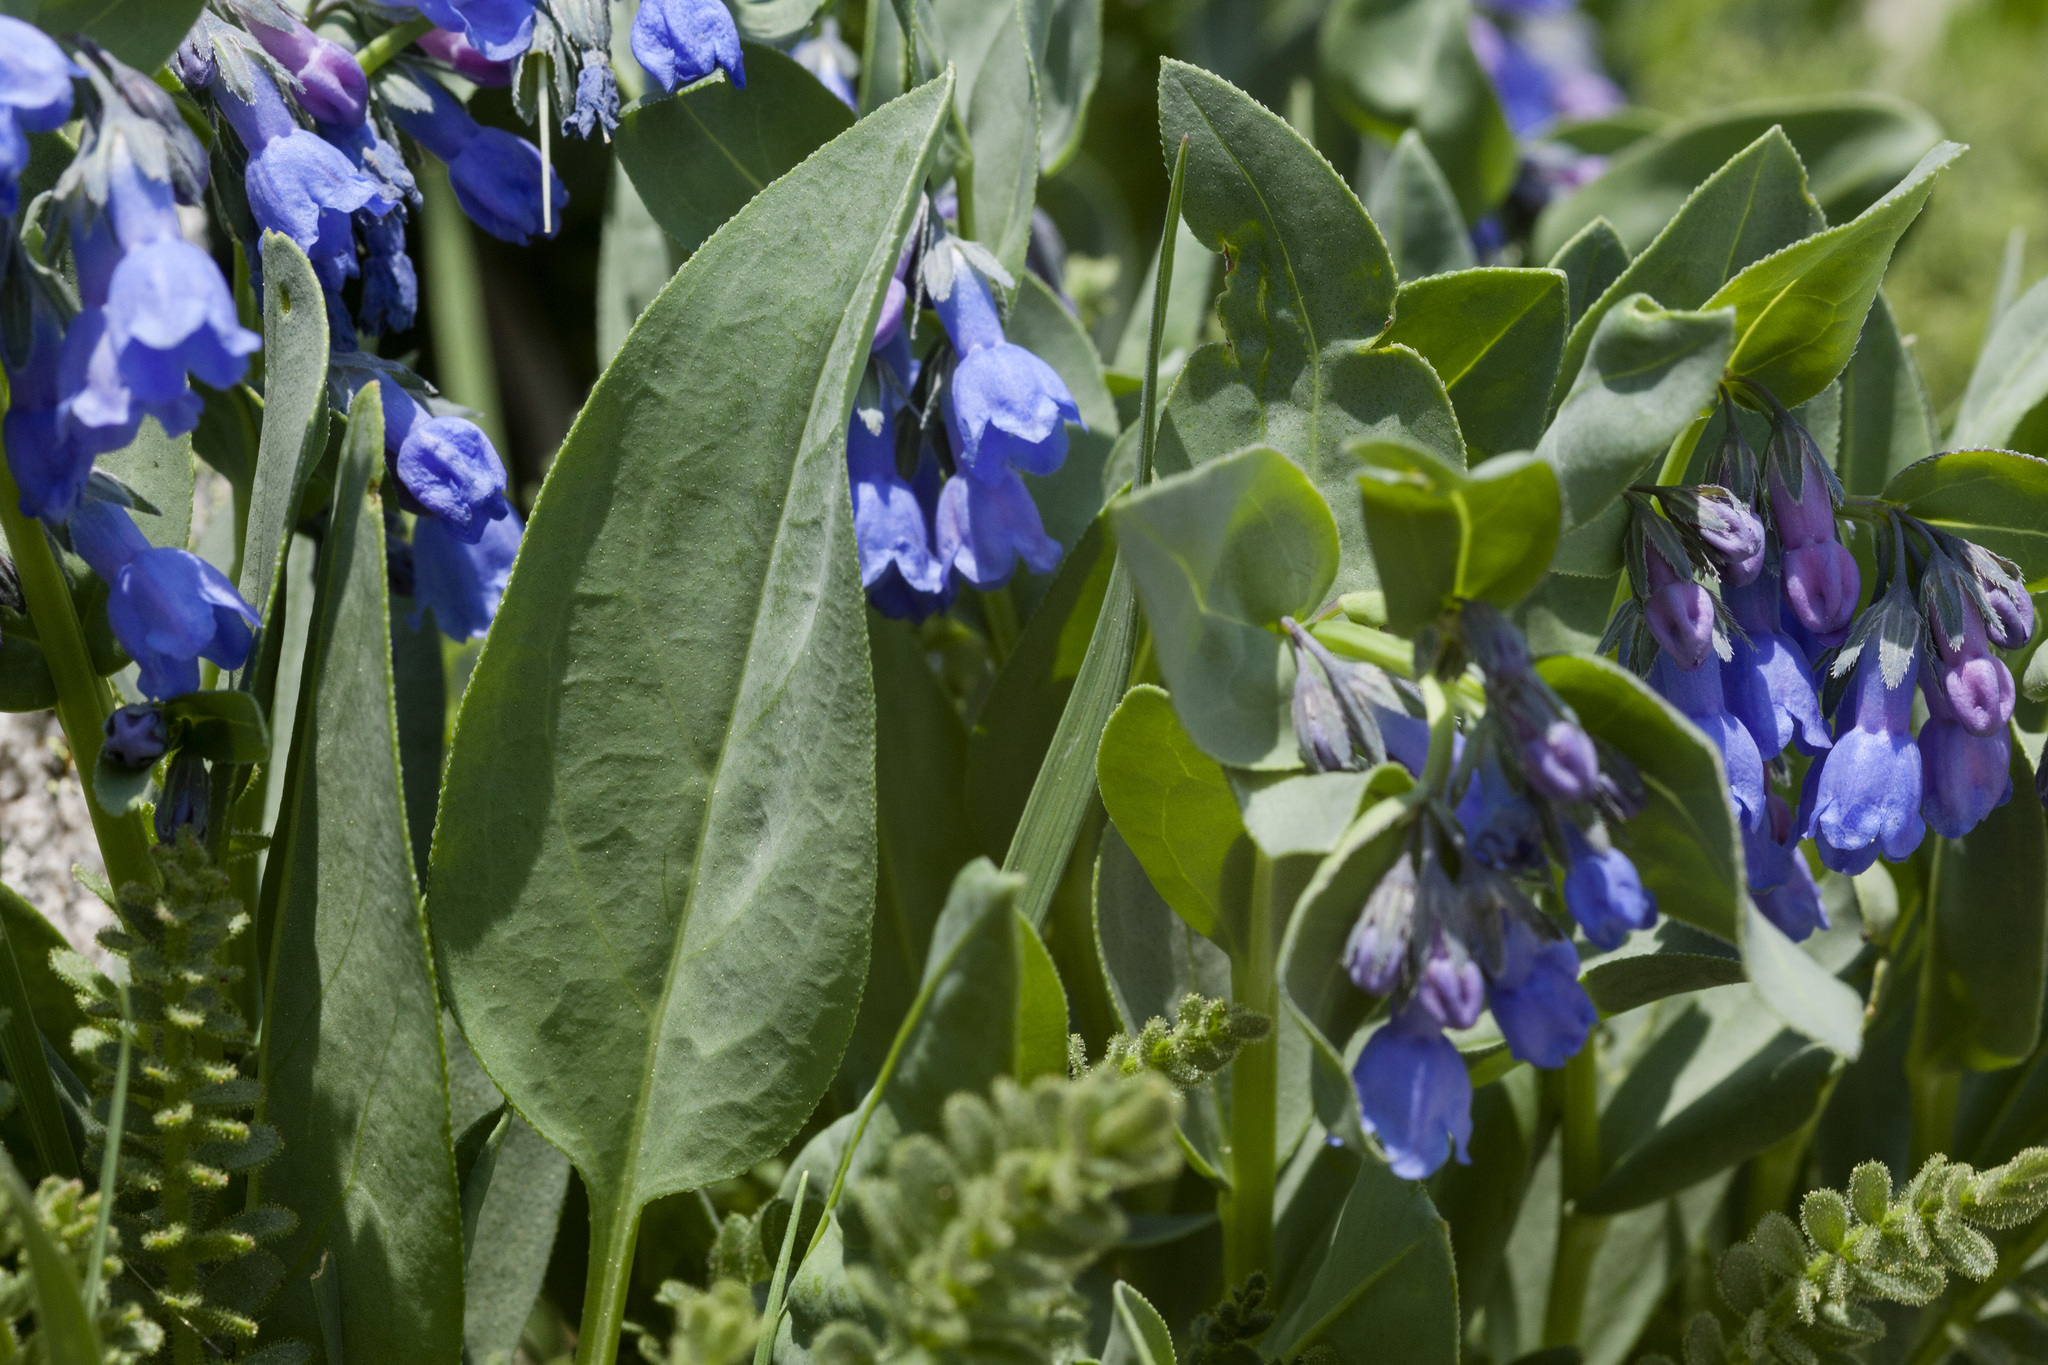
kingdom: Plantae
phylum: Tracheophyta
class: Magnoliopsida
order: Boraginales
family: Boraginaceae
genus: Mertensia
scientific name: Mertensia ovata
